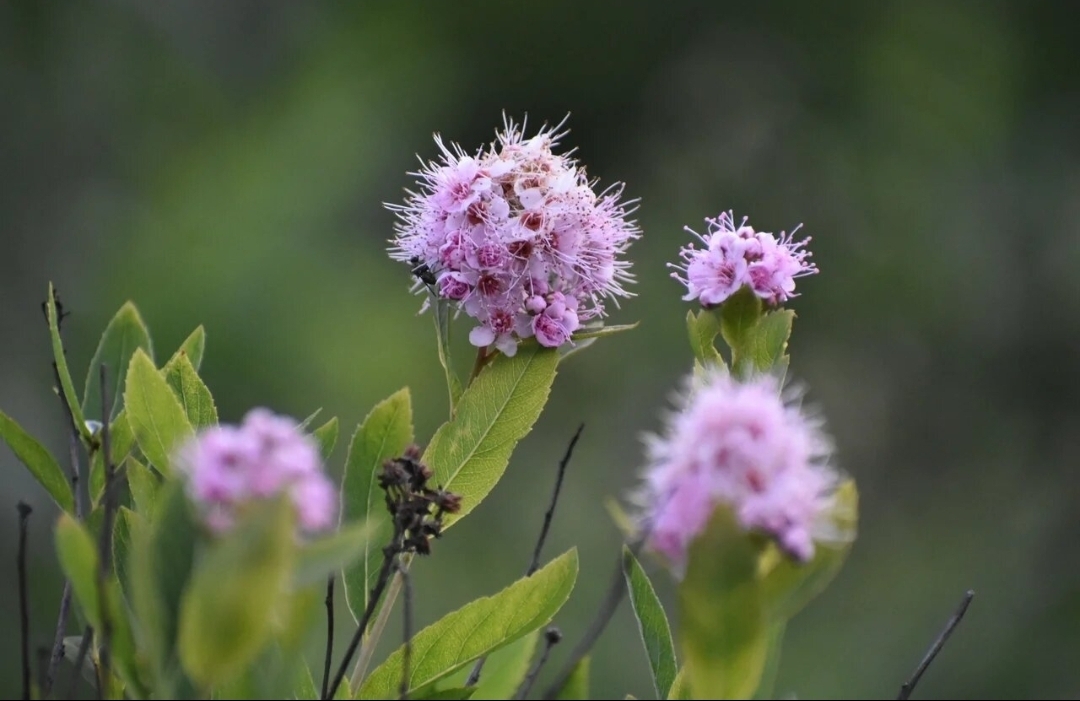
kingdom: Plantae
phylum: Tracheophyta
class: Magnoliopsida
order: Rosales
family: Rosaceae
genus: Spiraea
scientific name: Spiraea salicifolia
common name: Bridewort
